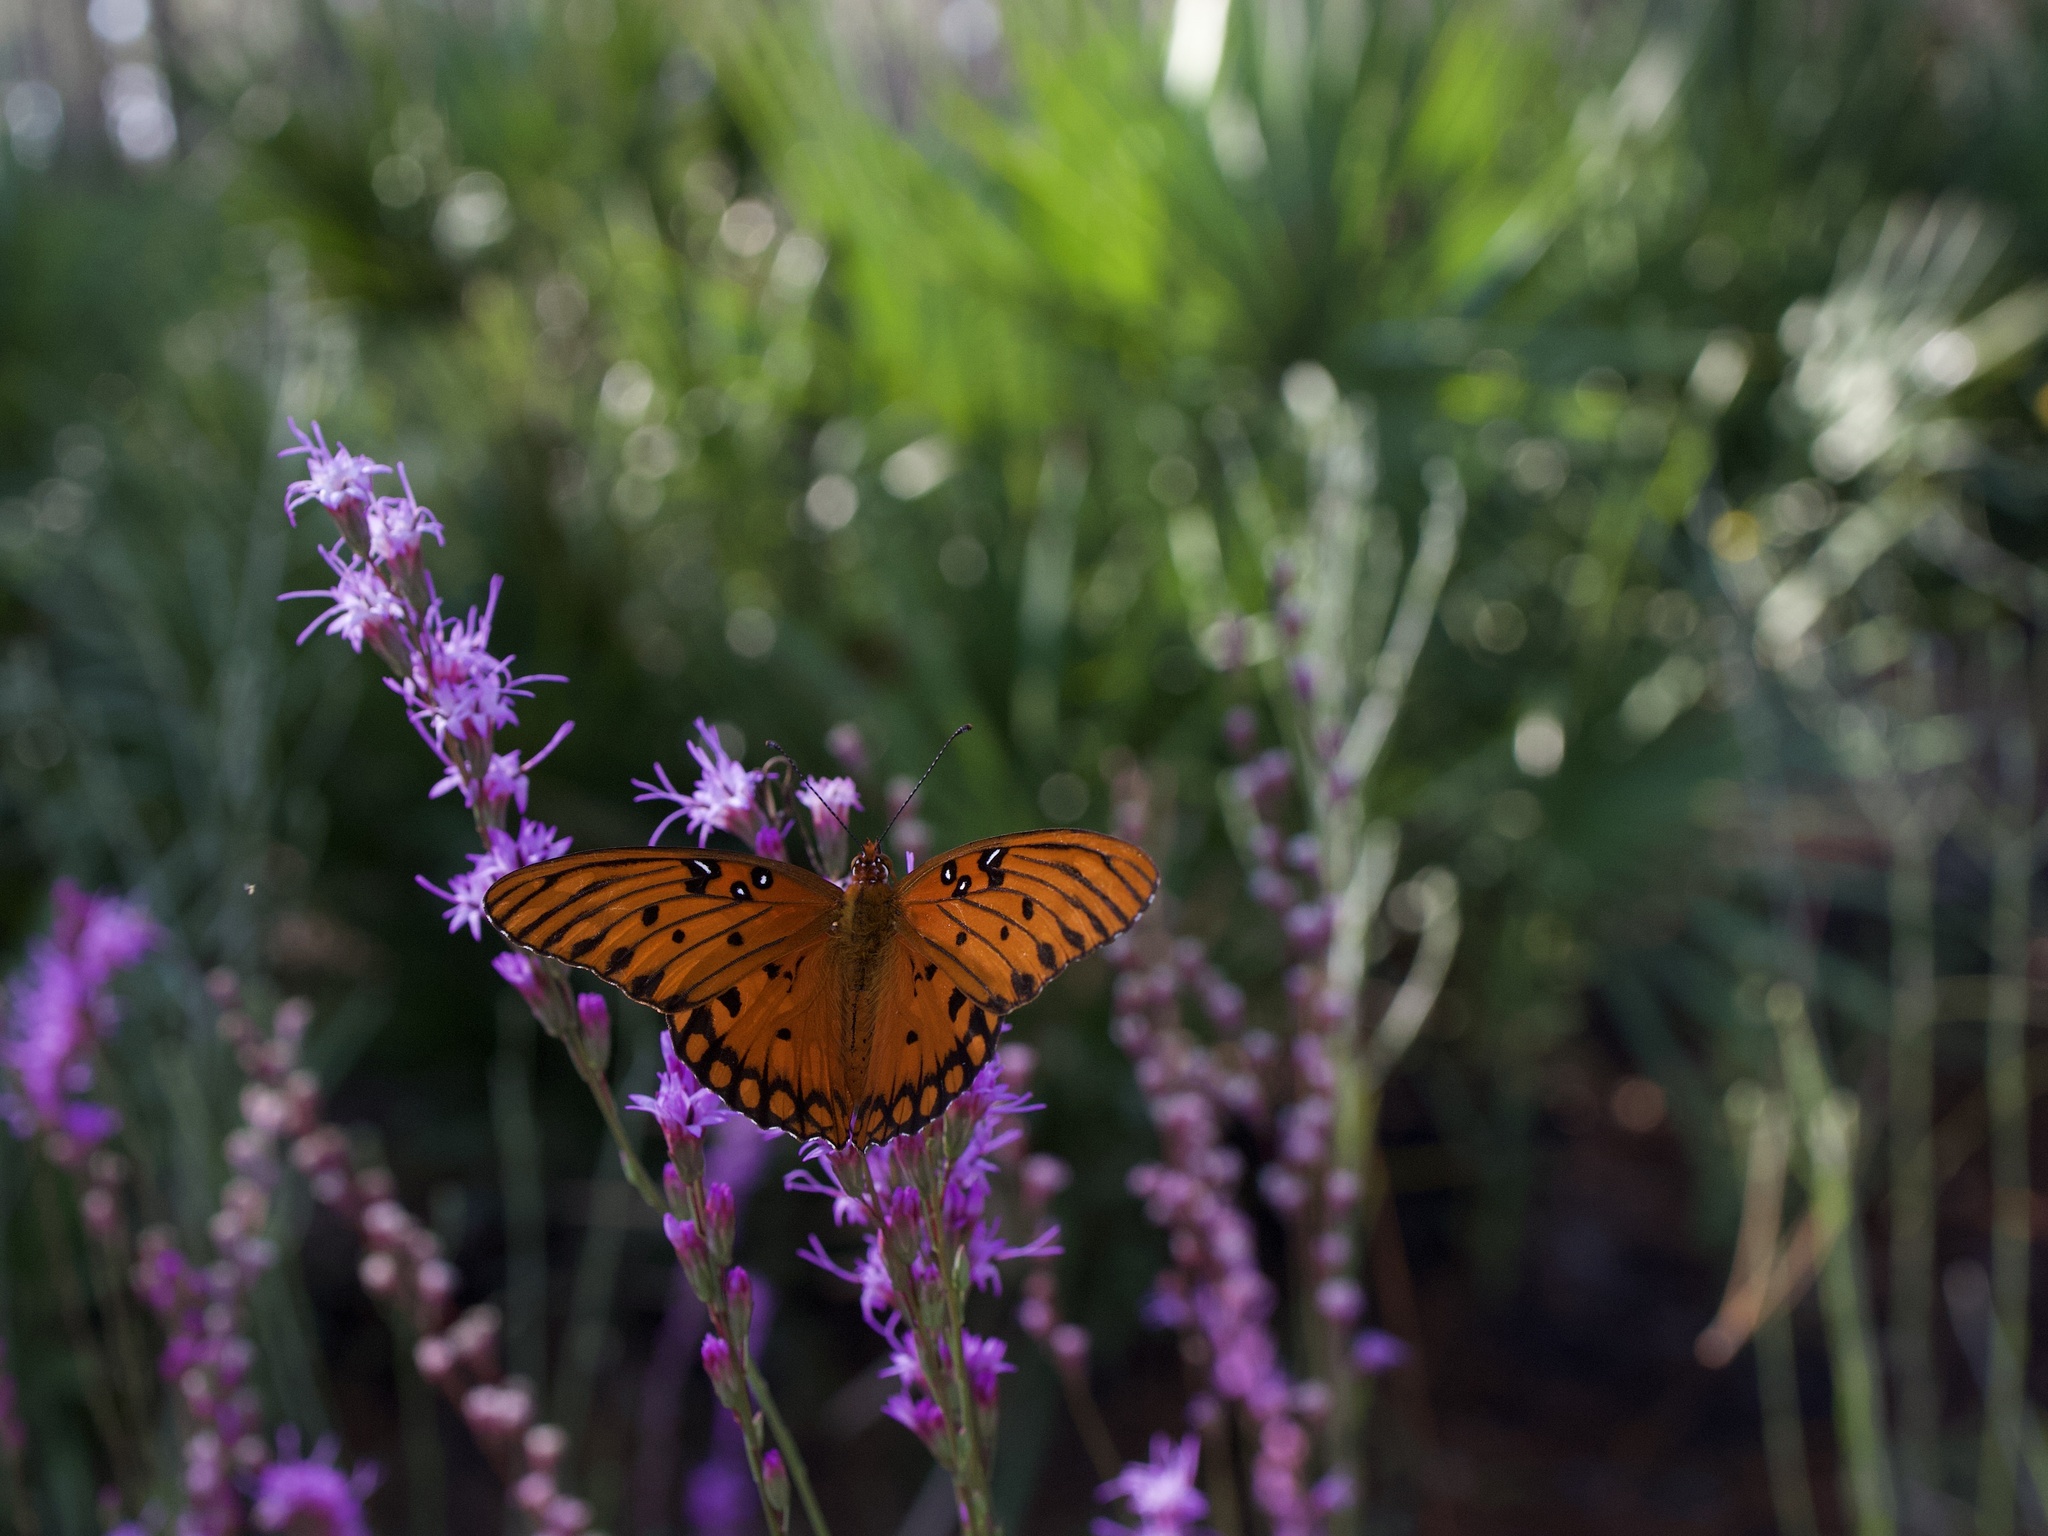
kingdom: Animalia
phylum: Arthropoda
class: Insecta
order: Lepidoptera
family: Nymphalidae
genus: Dione
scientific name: Dione vanillae
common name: Gulf fritillary
